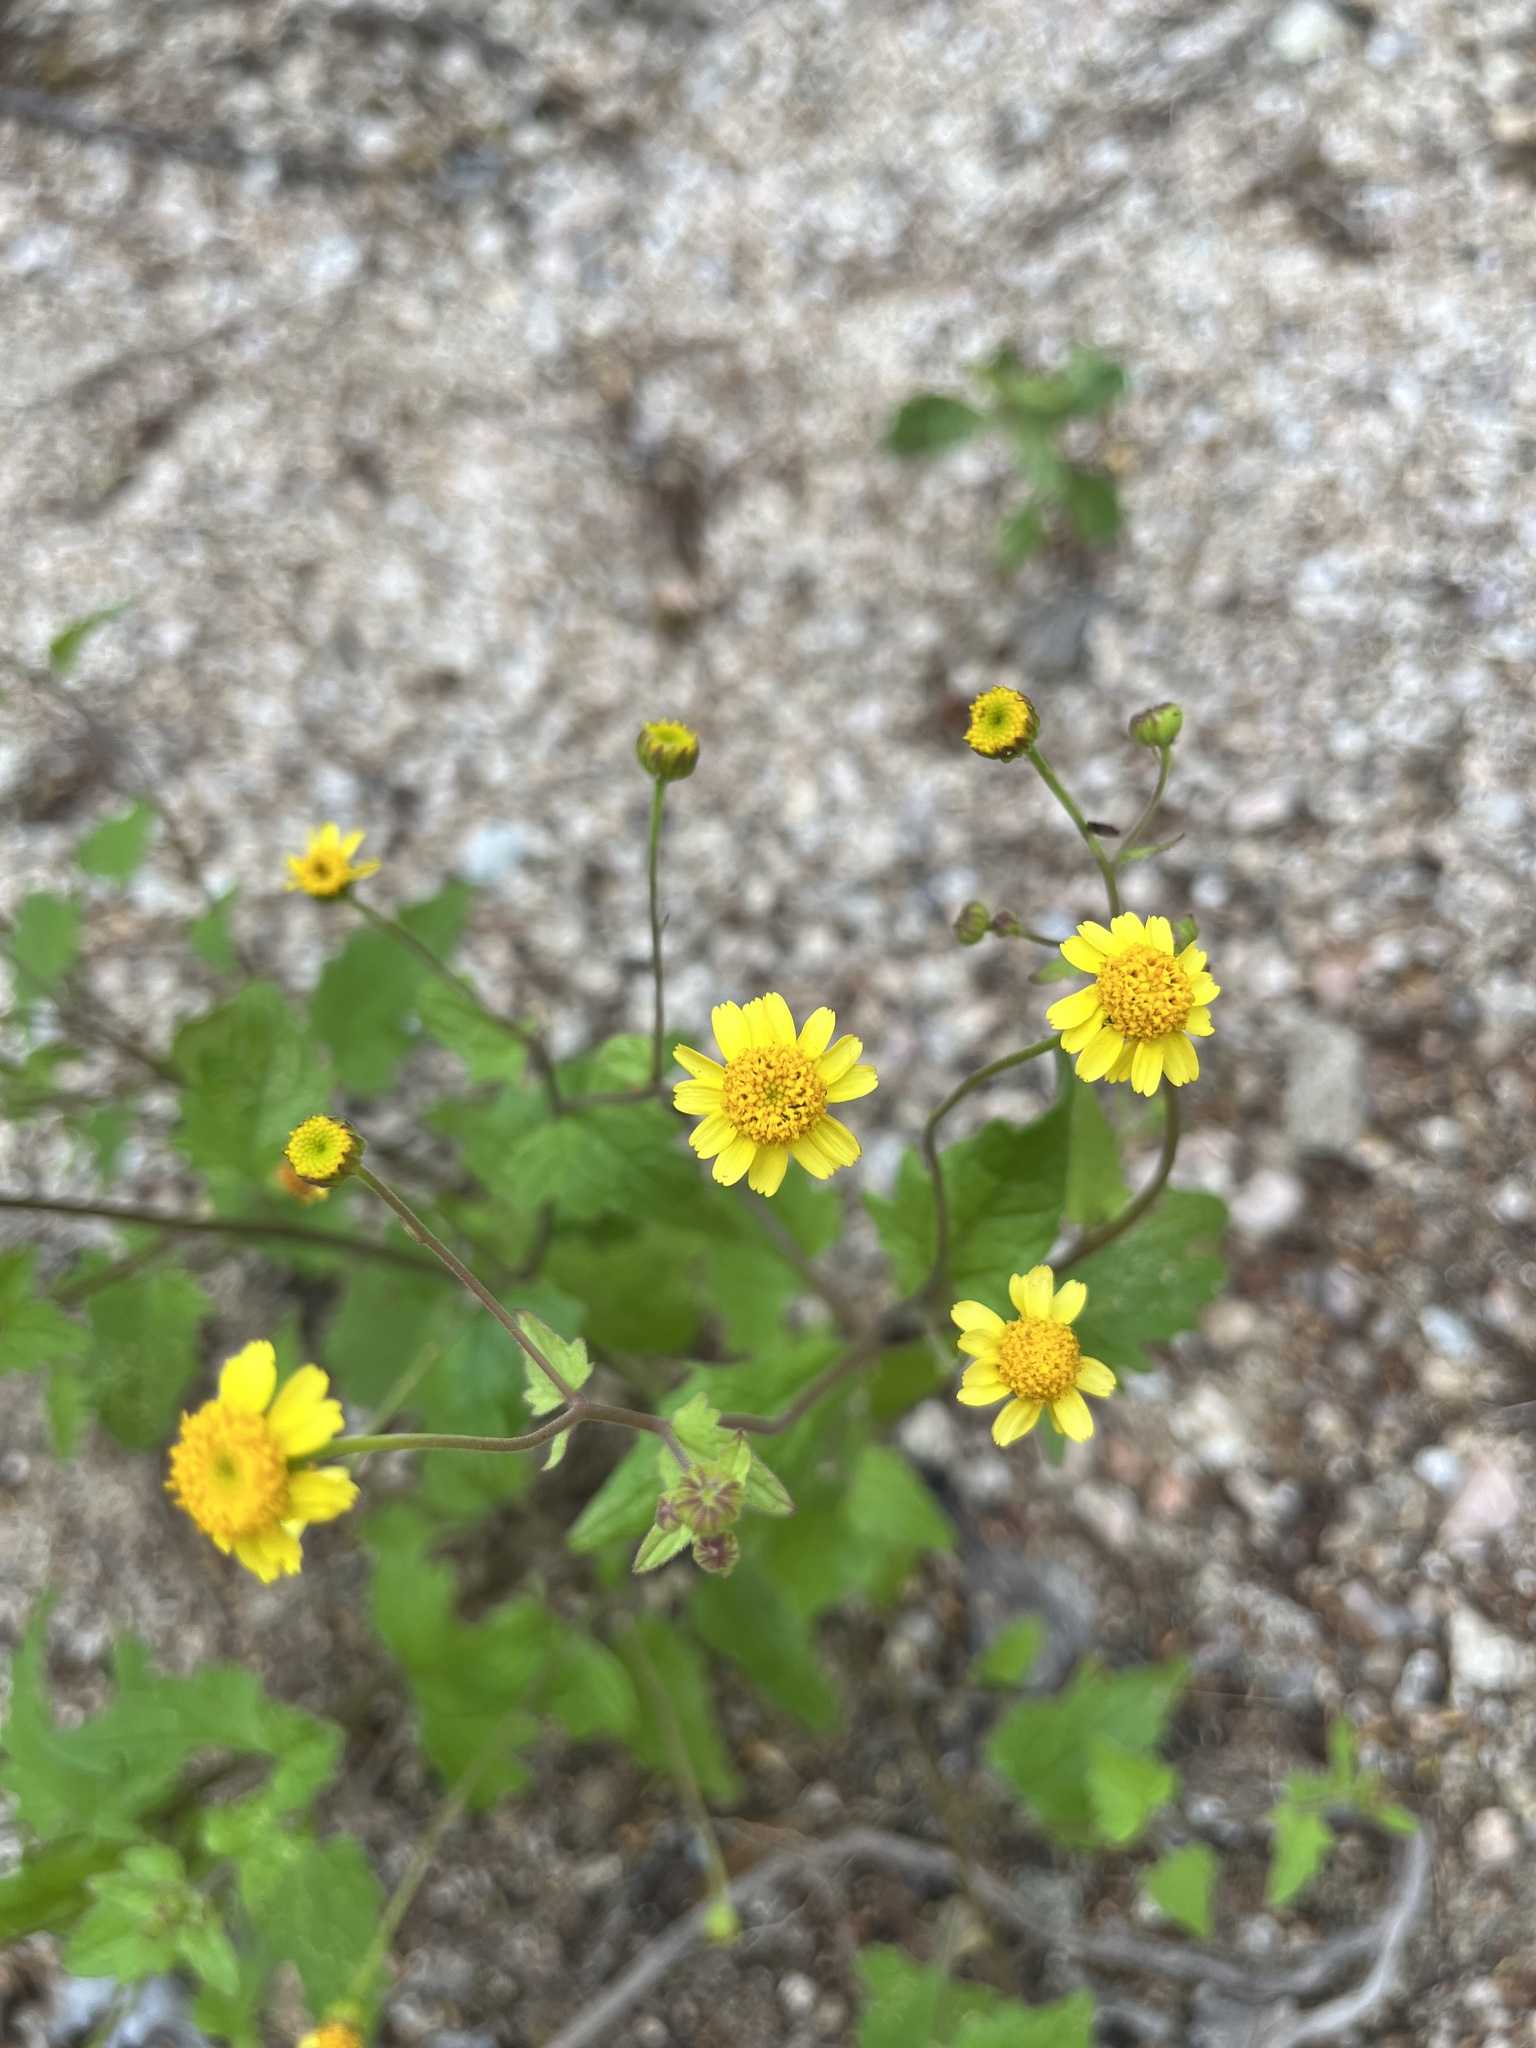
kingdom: Plantae
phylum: Tracheophyta
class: Magnoliopsida
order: Asterales
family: Asteraceae
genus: Perityle
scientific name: Perityle cuneata
